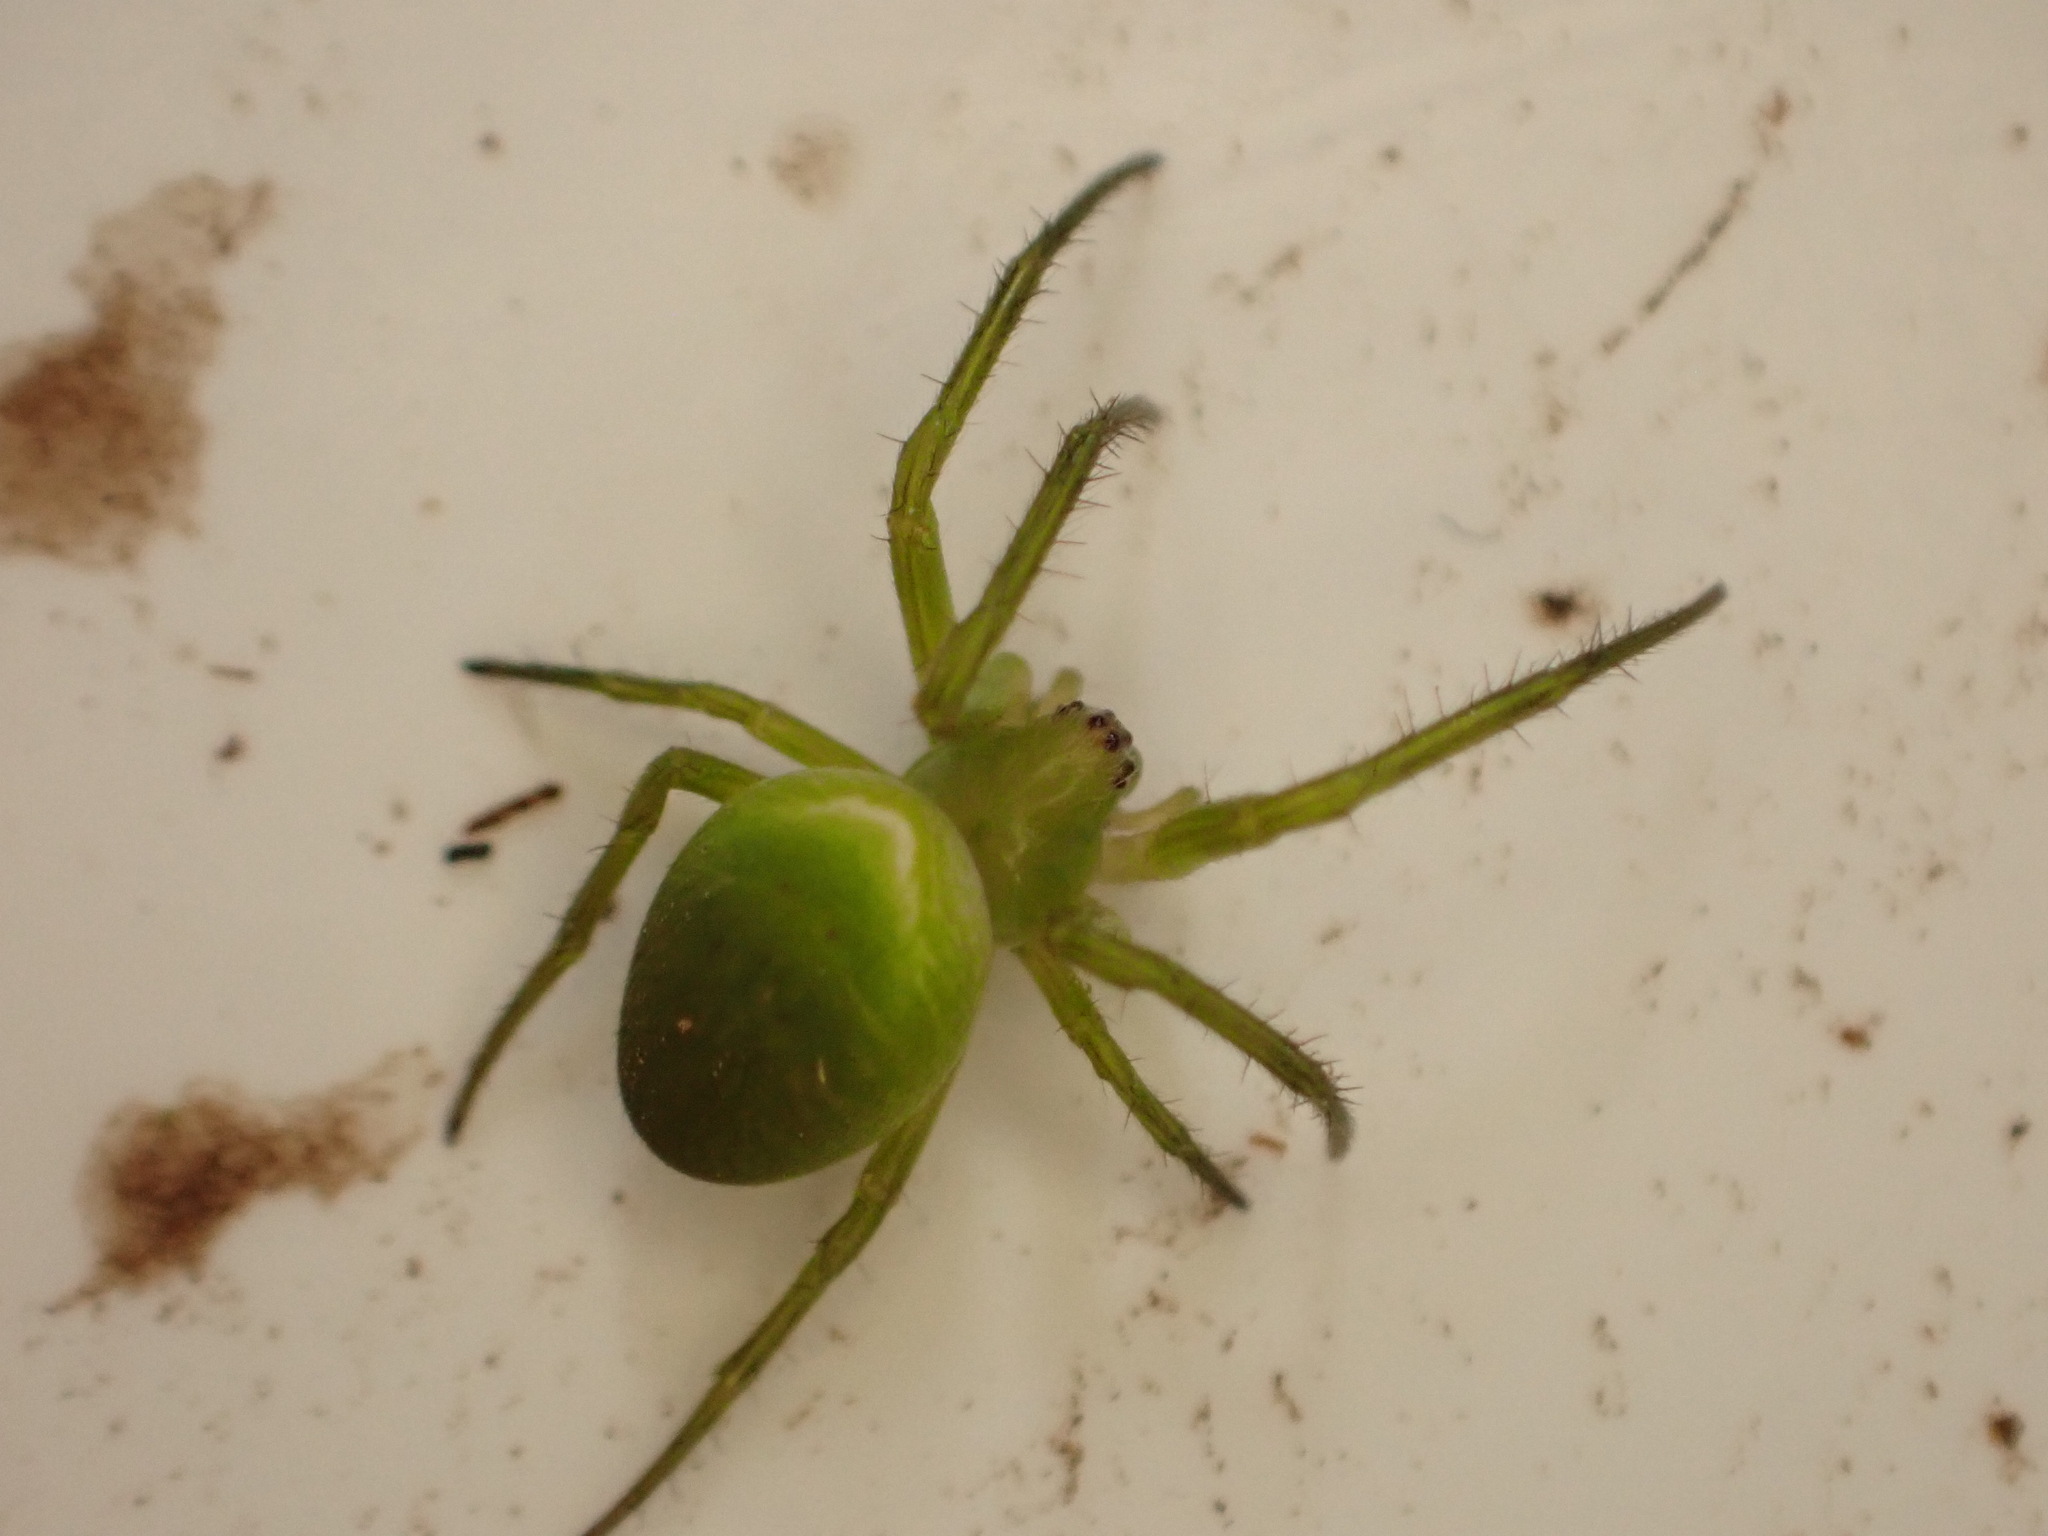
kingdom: Animalia
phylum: Arthropoda
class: Arachnida
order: Araneae
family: Araneidae
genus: Colaranea
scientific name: Colaranea viriditas
